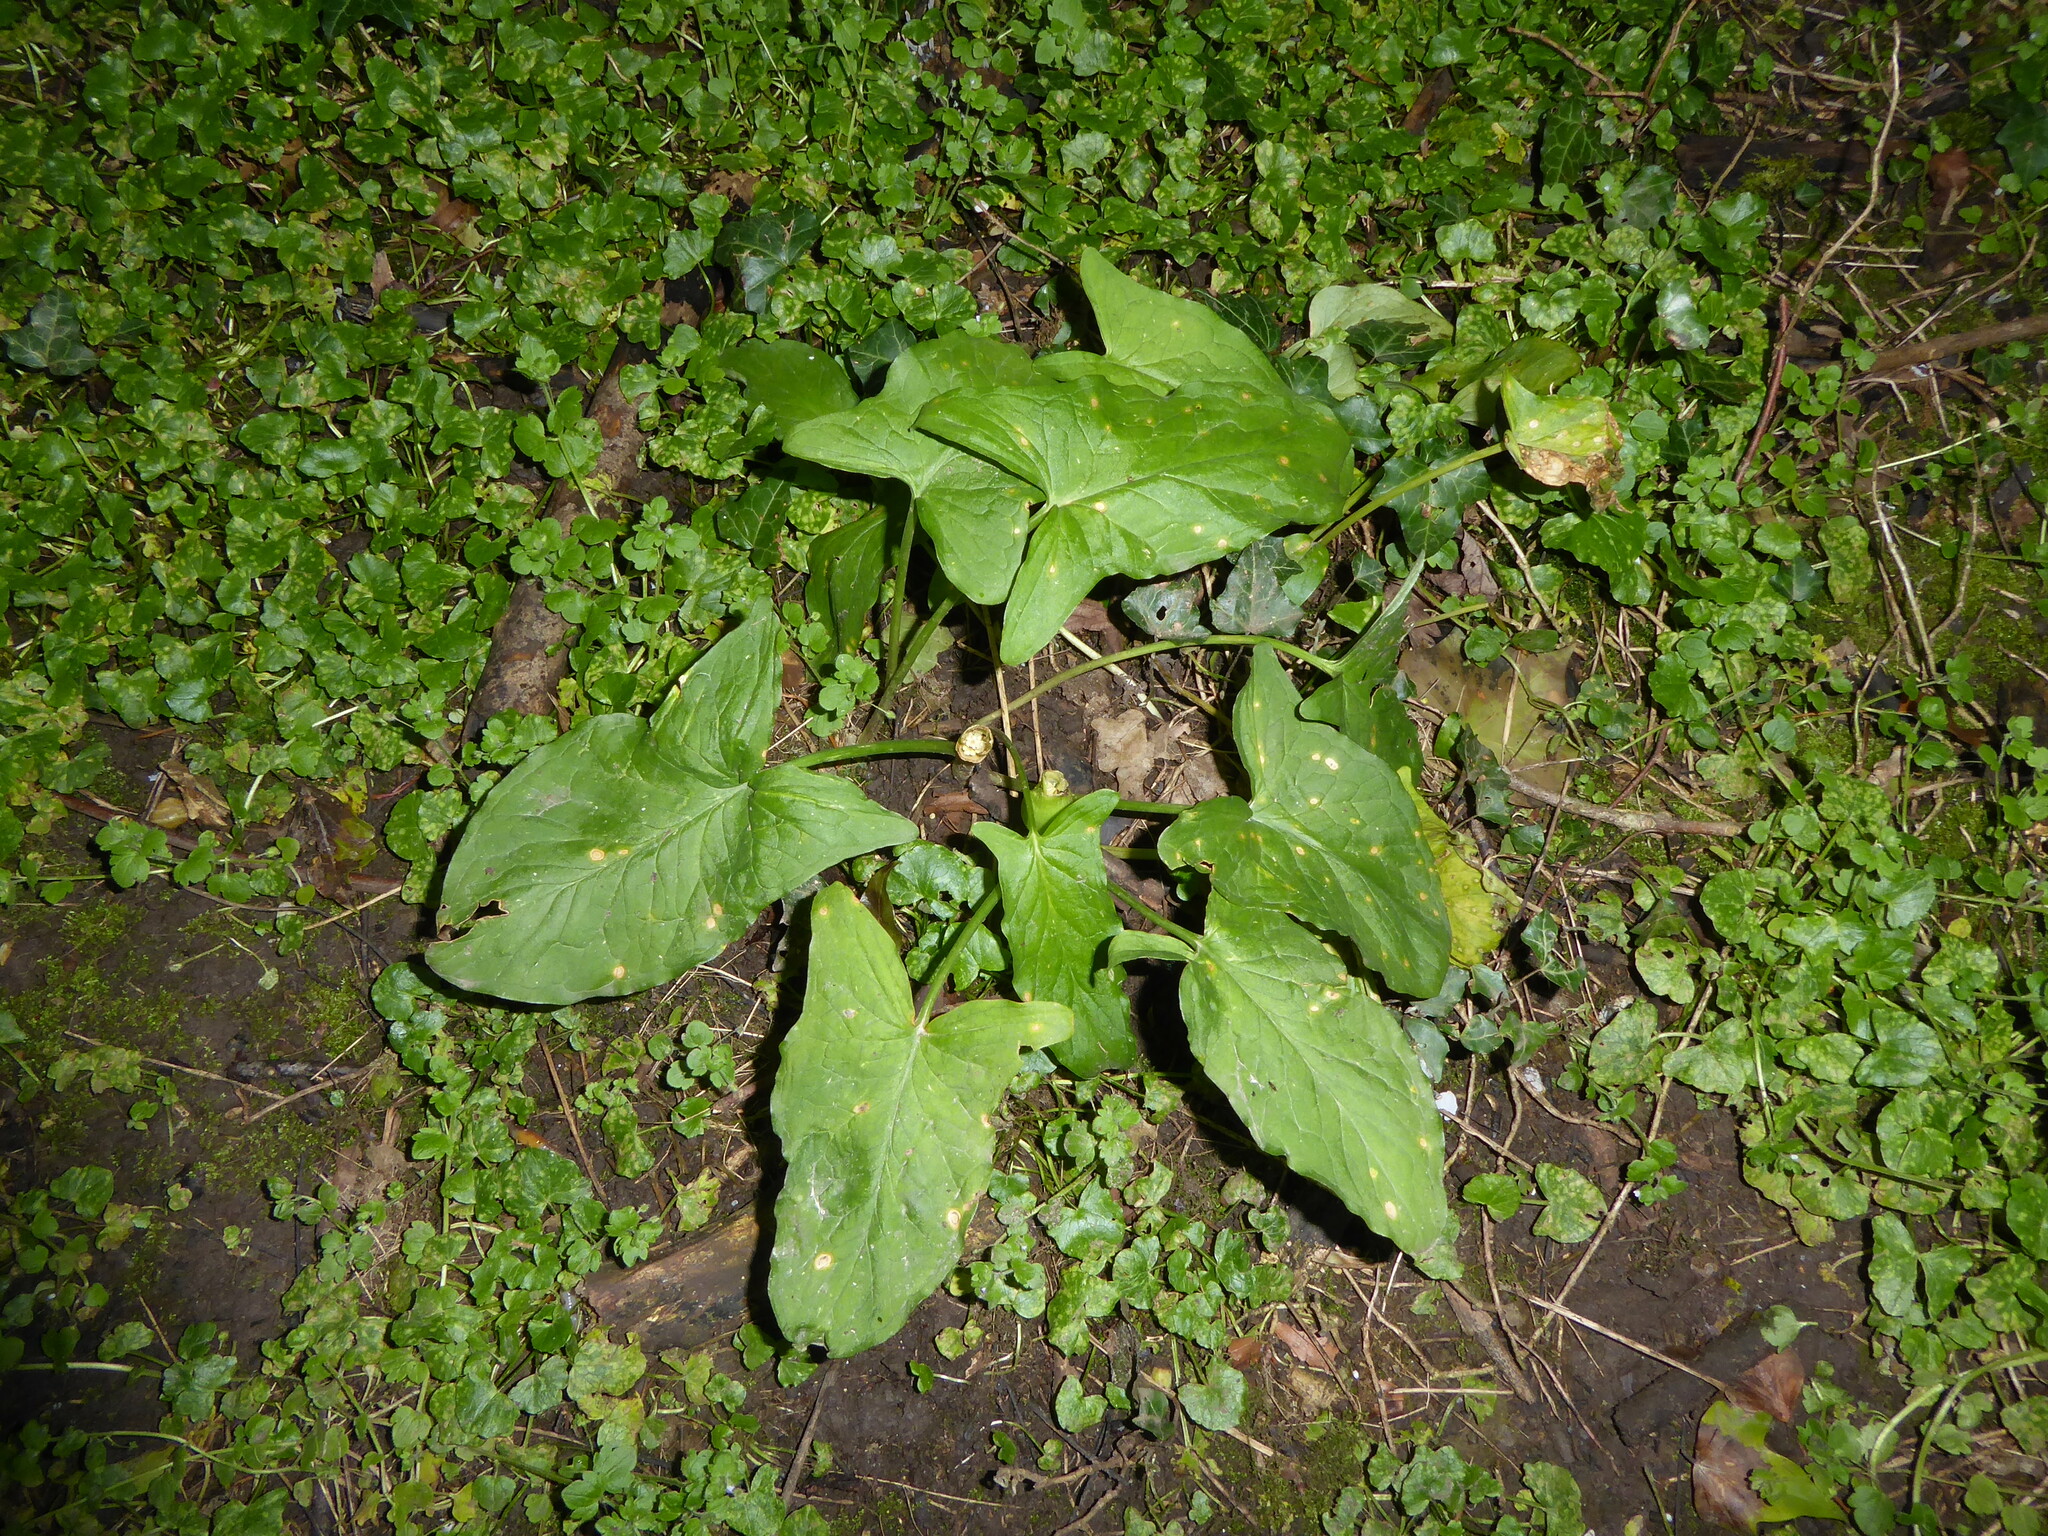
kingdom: Plantae
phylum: Tracheophyta
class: Liliopsida
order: Alismatales
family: Araceae
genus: Arum
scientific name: Arum maculatum
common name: Lords-and-ladies
